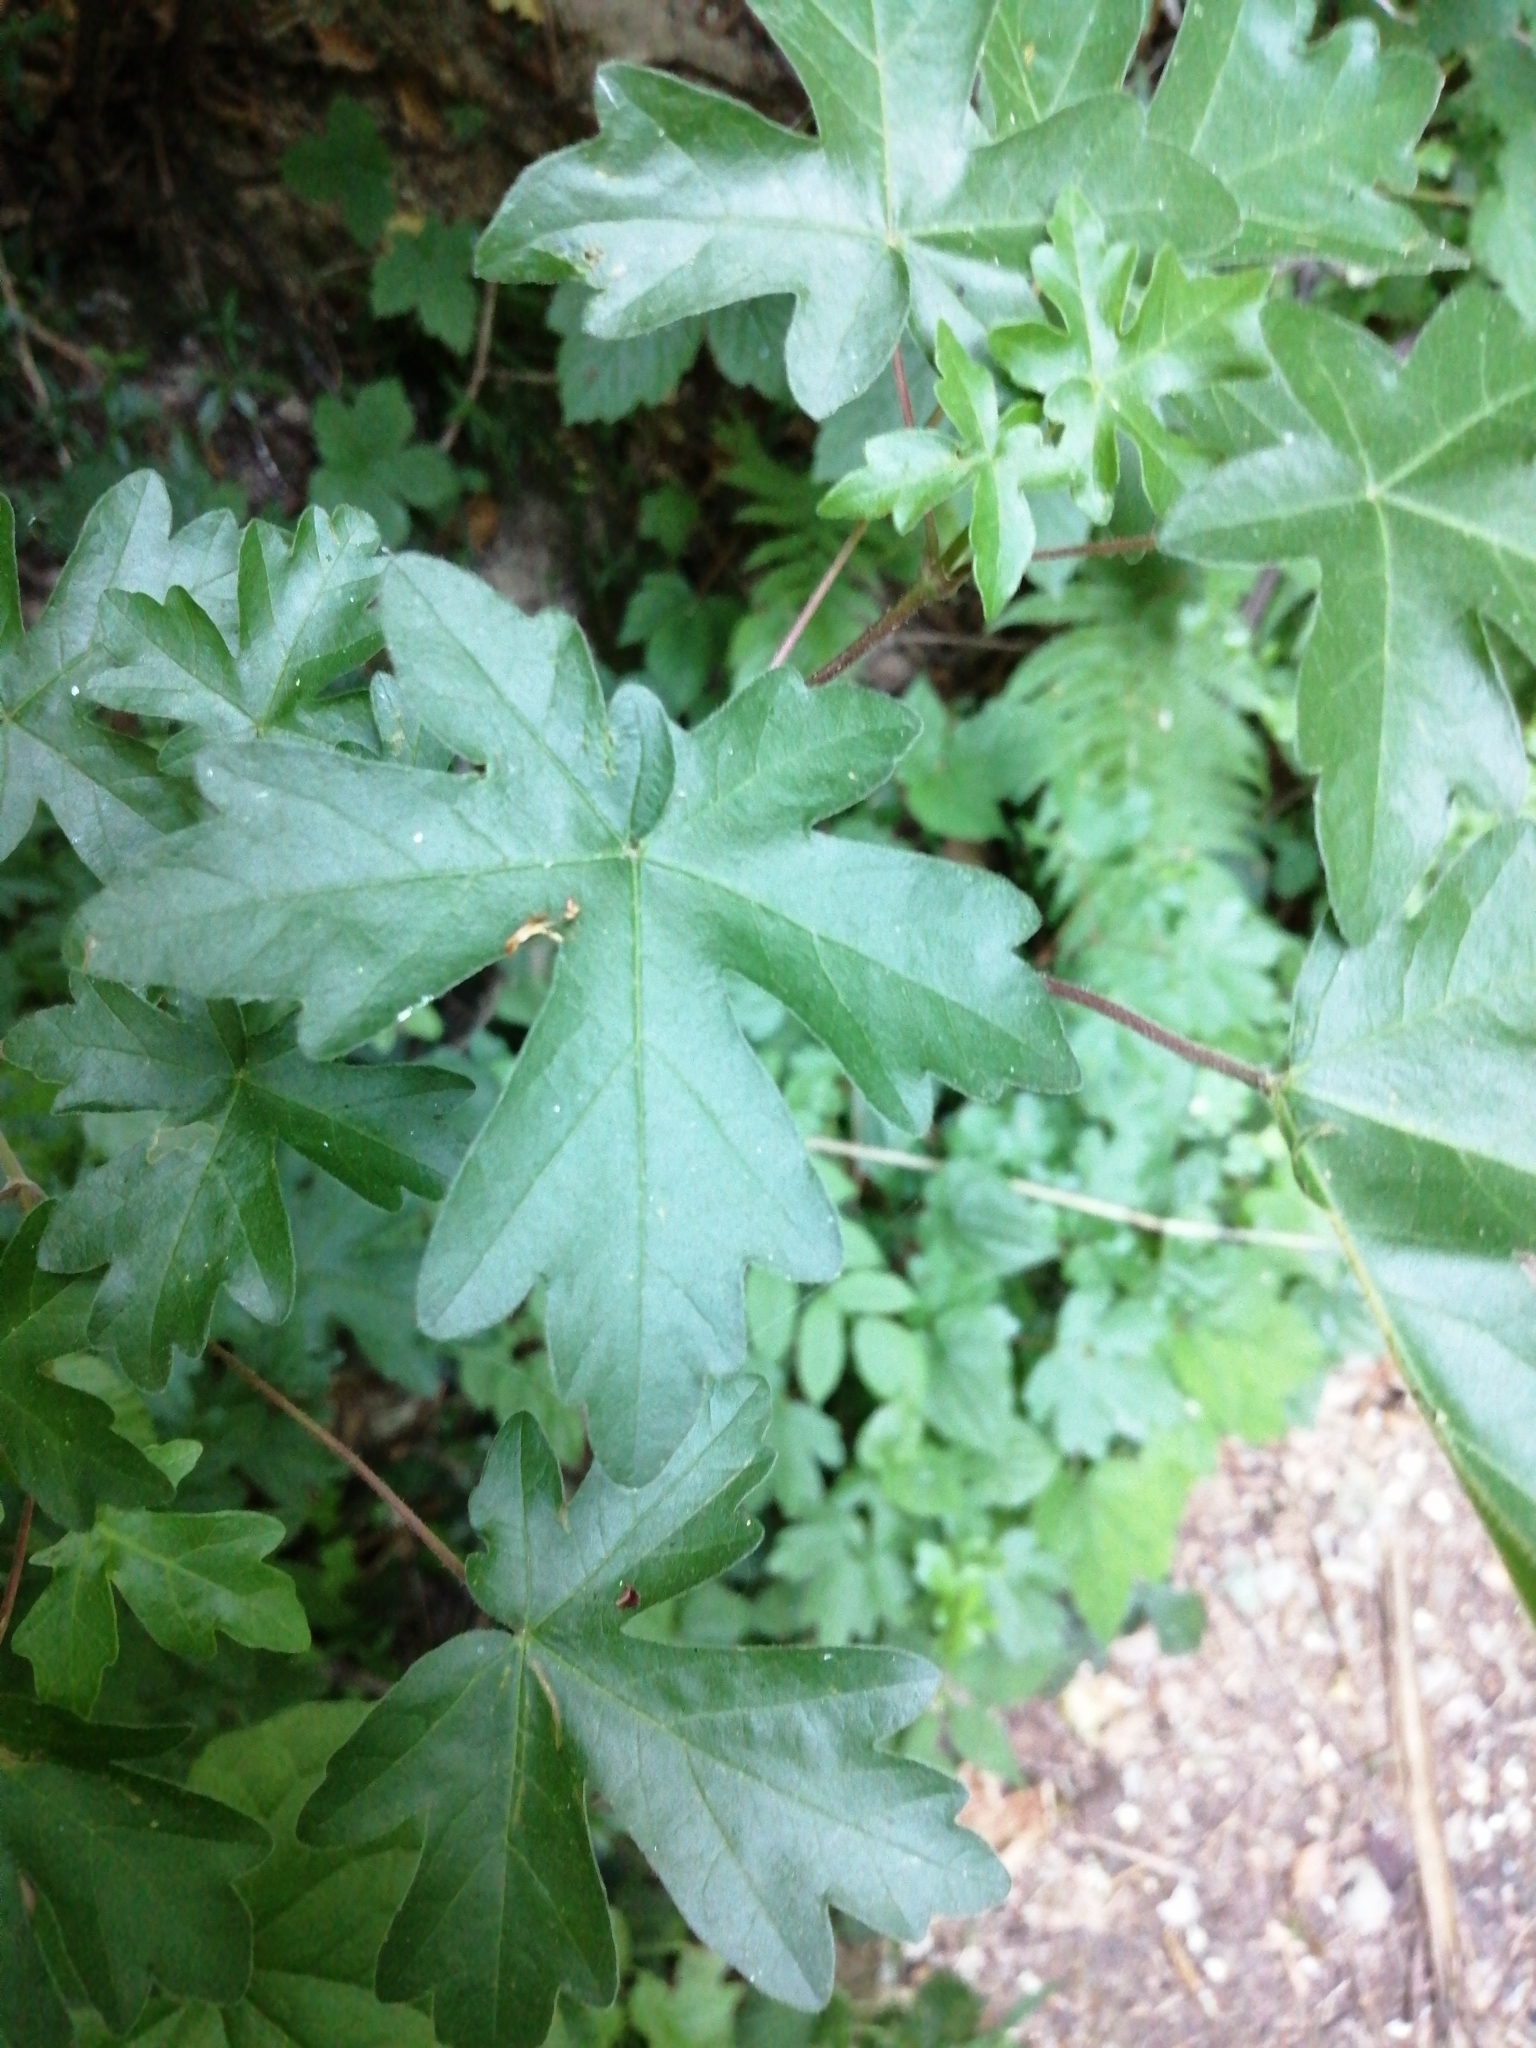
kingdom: Plantae
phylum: Tracheophyta
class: Magnoliopsida
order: Sapindales
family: Sapindaceae
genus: Acer
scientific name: Acer campestre
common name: Field maple
